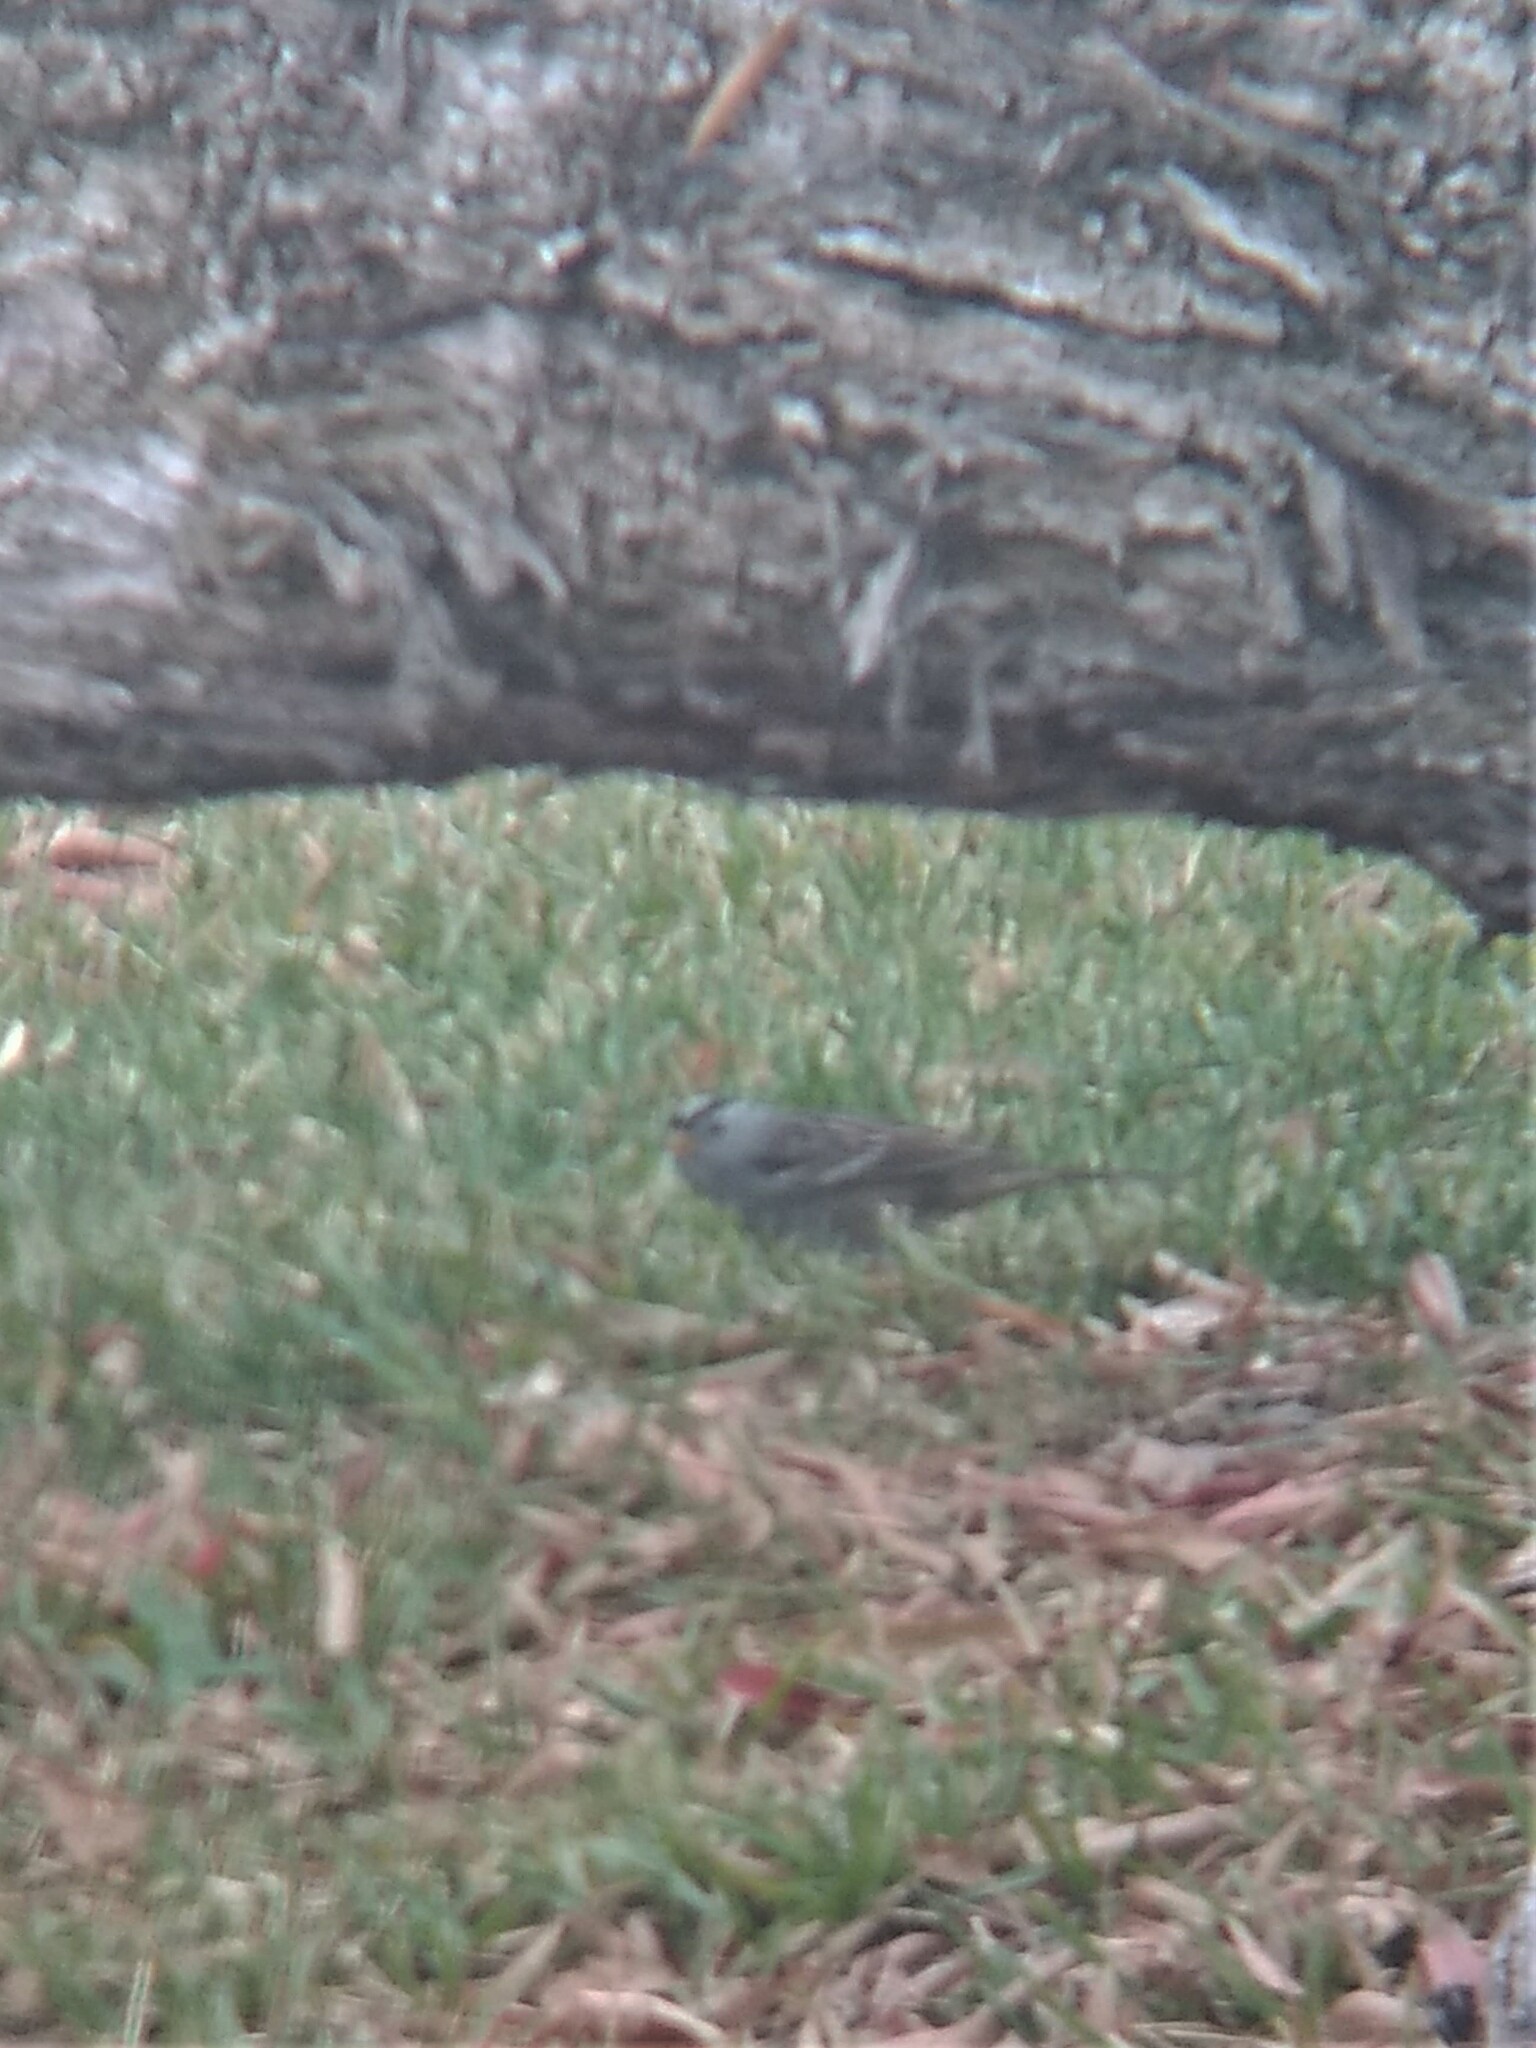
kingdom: Animalia
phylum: Chordata
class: Aves
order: Passeriformes
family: Passerellidae
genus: Zonotrichia
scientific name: Zonotrichia leucophrys
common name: White-crowned sparrow
